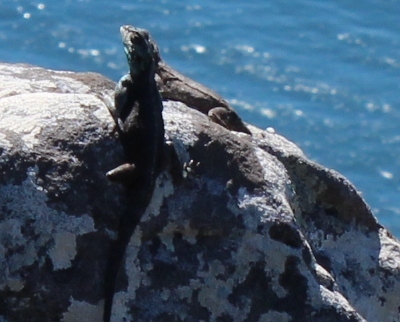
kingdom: Animalia
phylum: Chordata
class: Squamata
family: Agamidae
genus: Agama
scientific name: Agama atra
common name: Southern african rock agama
